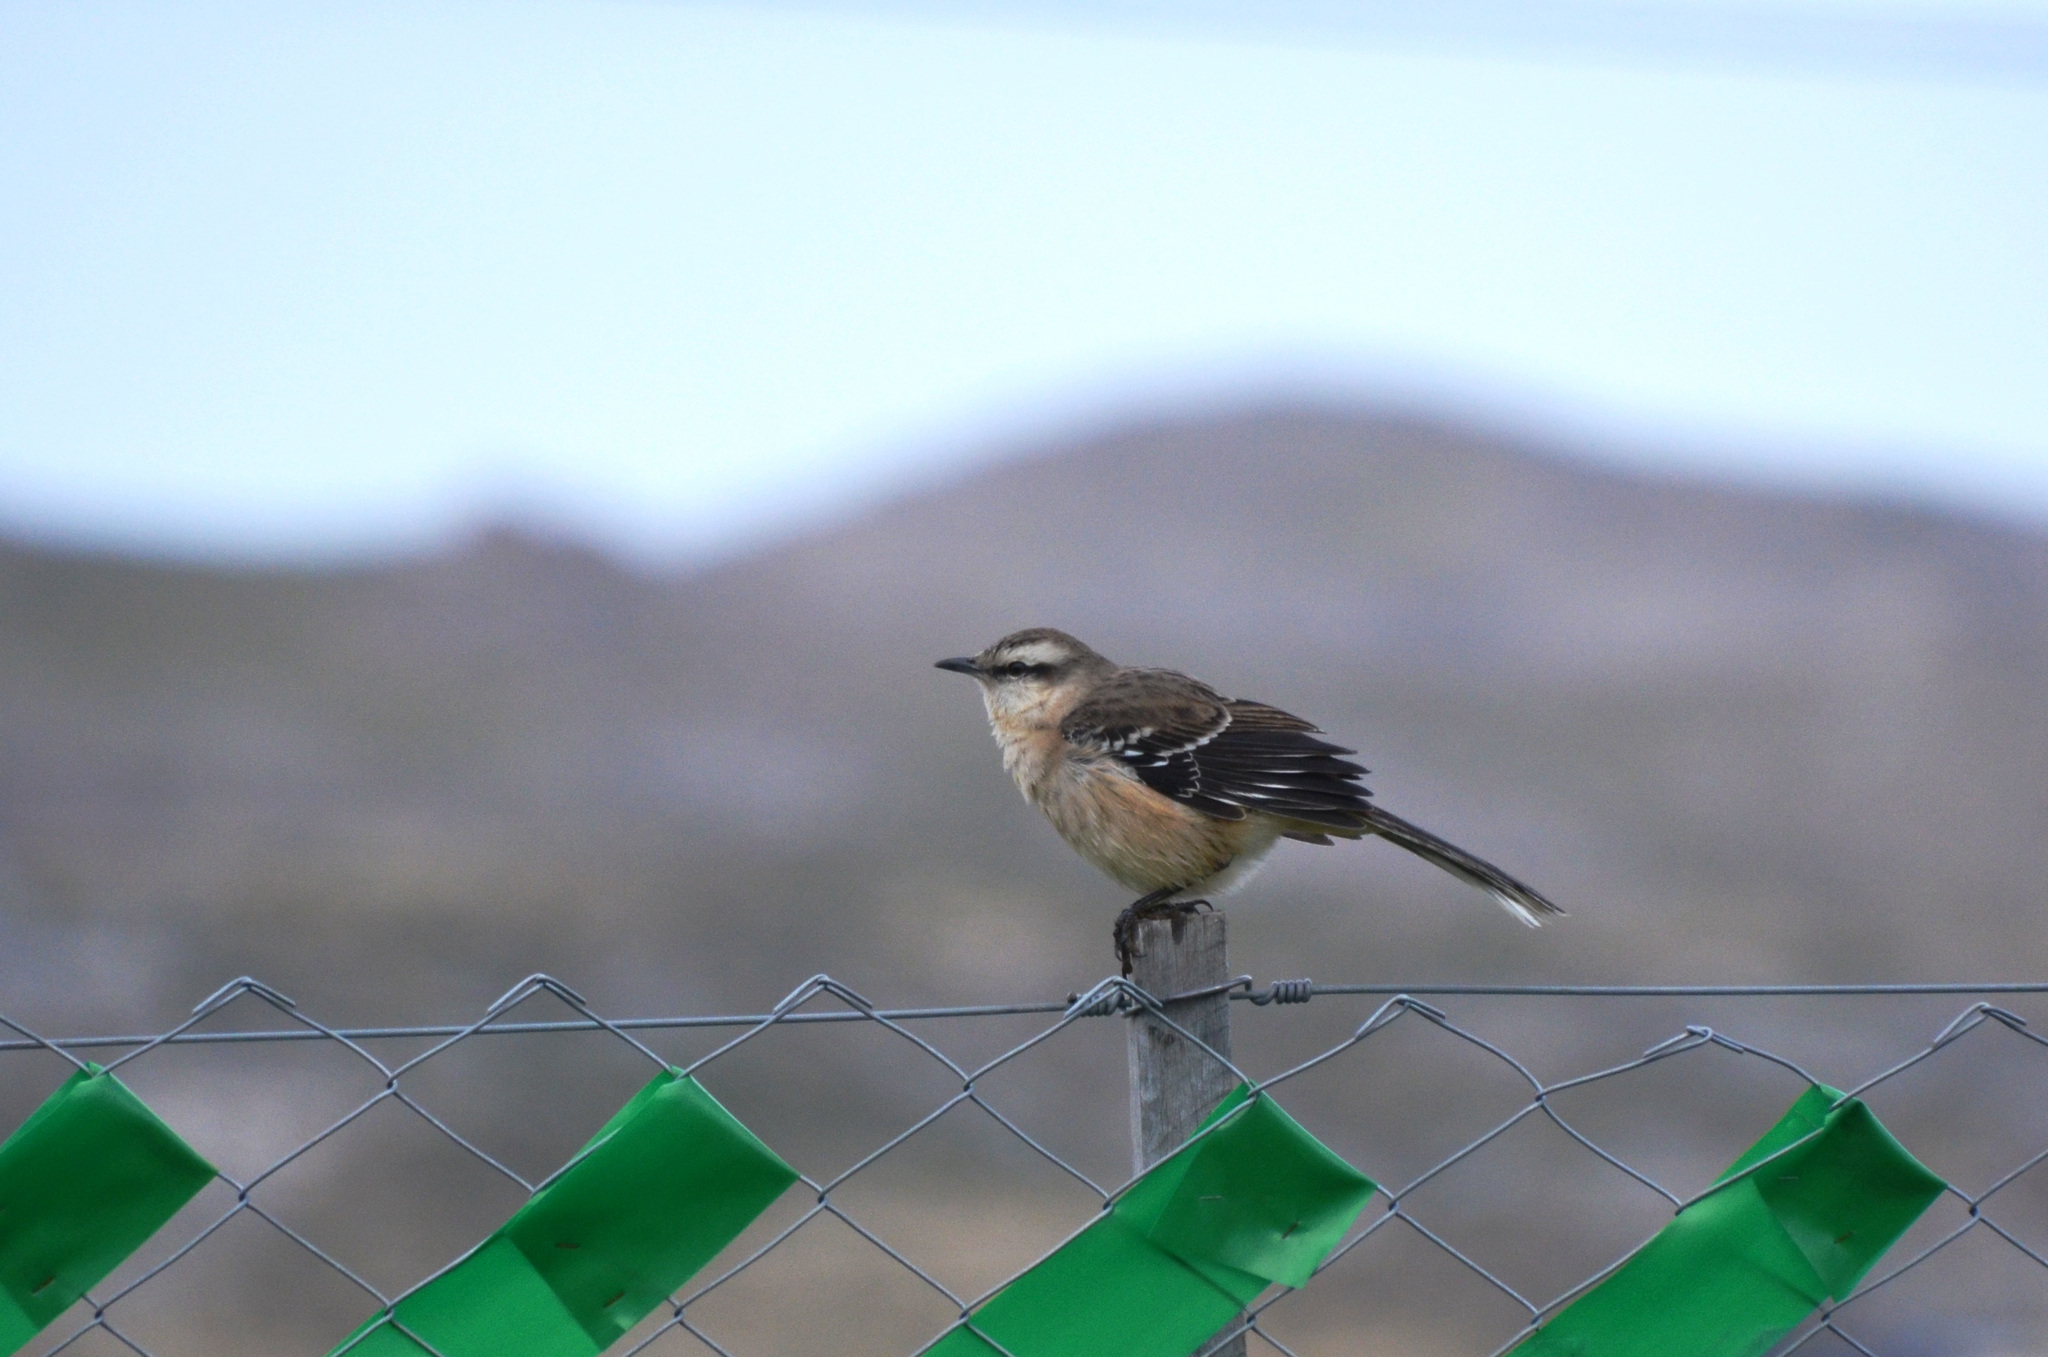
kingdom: Animalia
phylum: Chordata
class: Aves
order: Passeriformes
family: Mimidae
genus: Mimus
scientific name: Mimus saturninus
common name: Chalk-browed mockingbird
